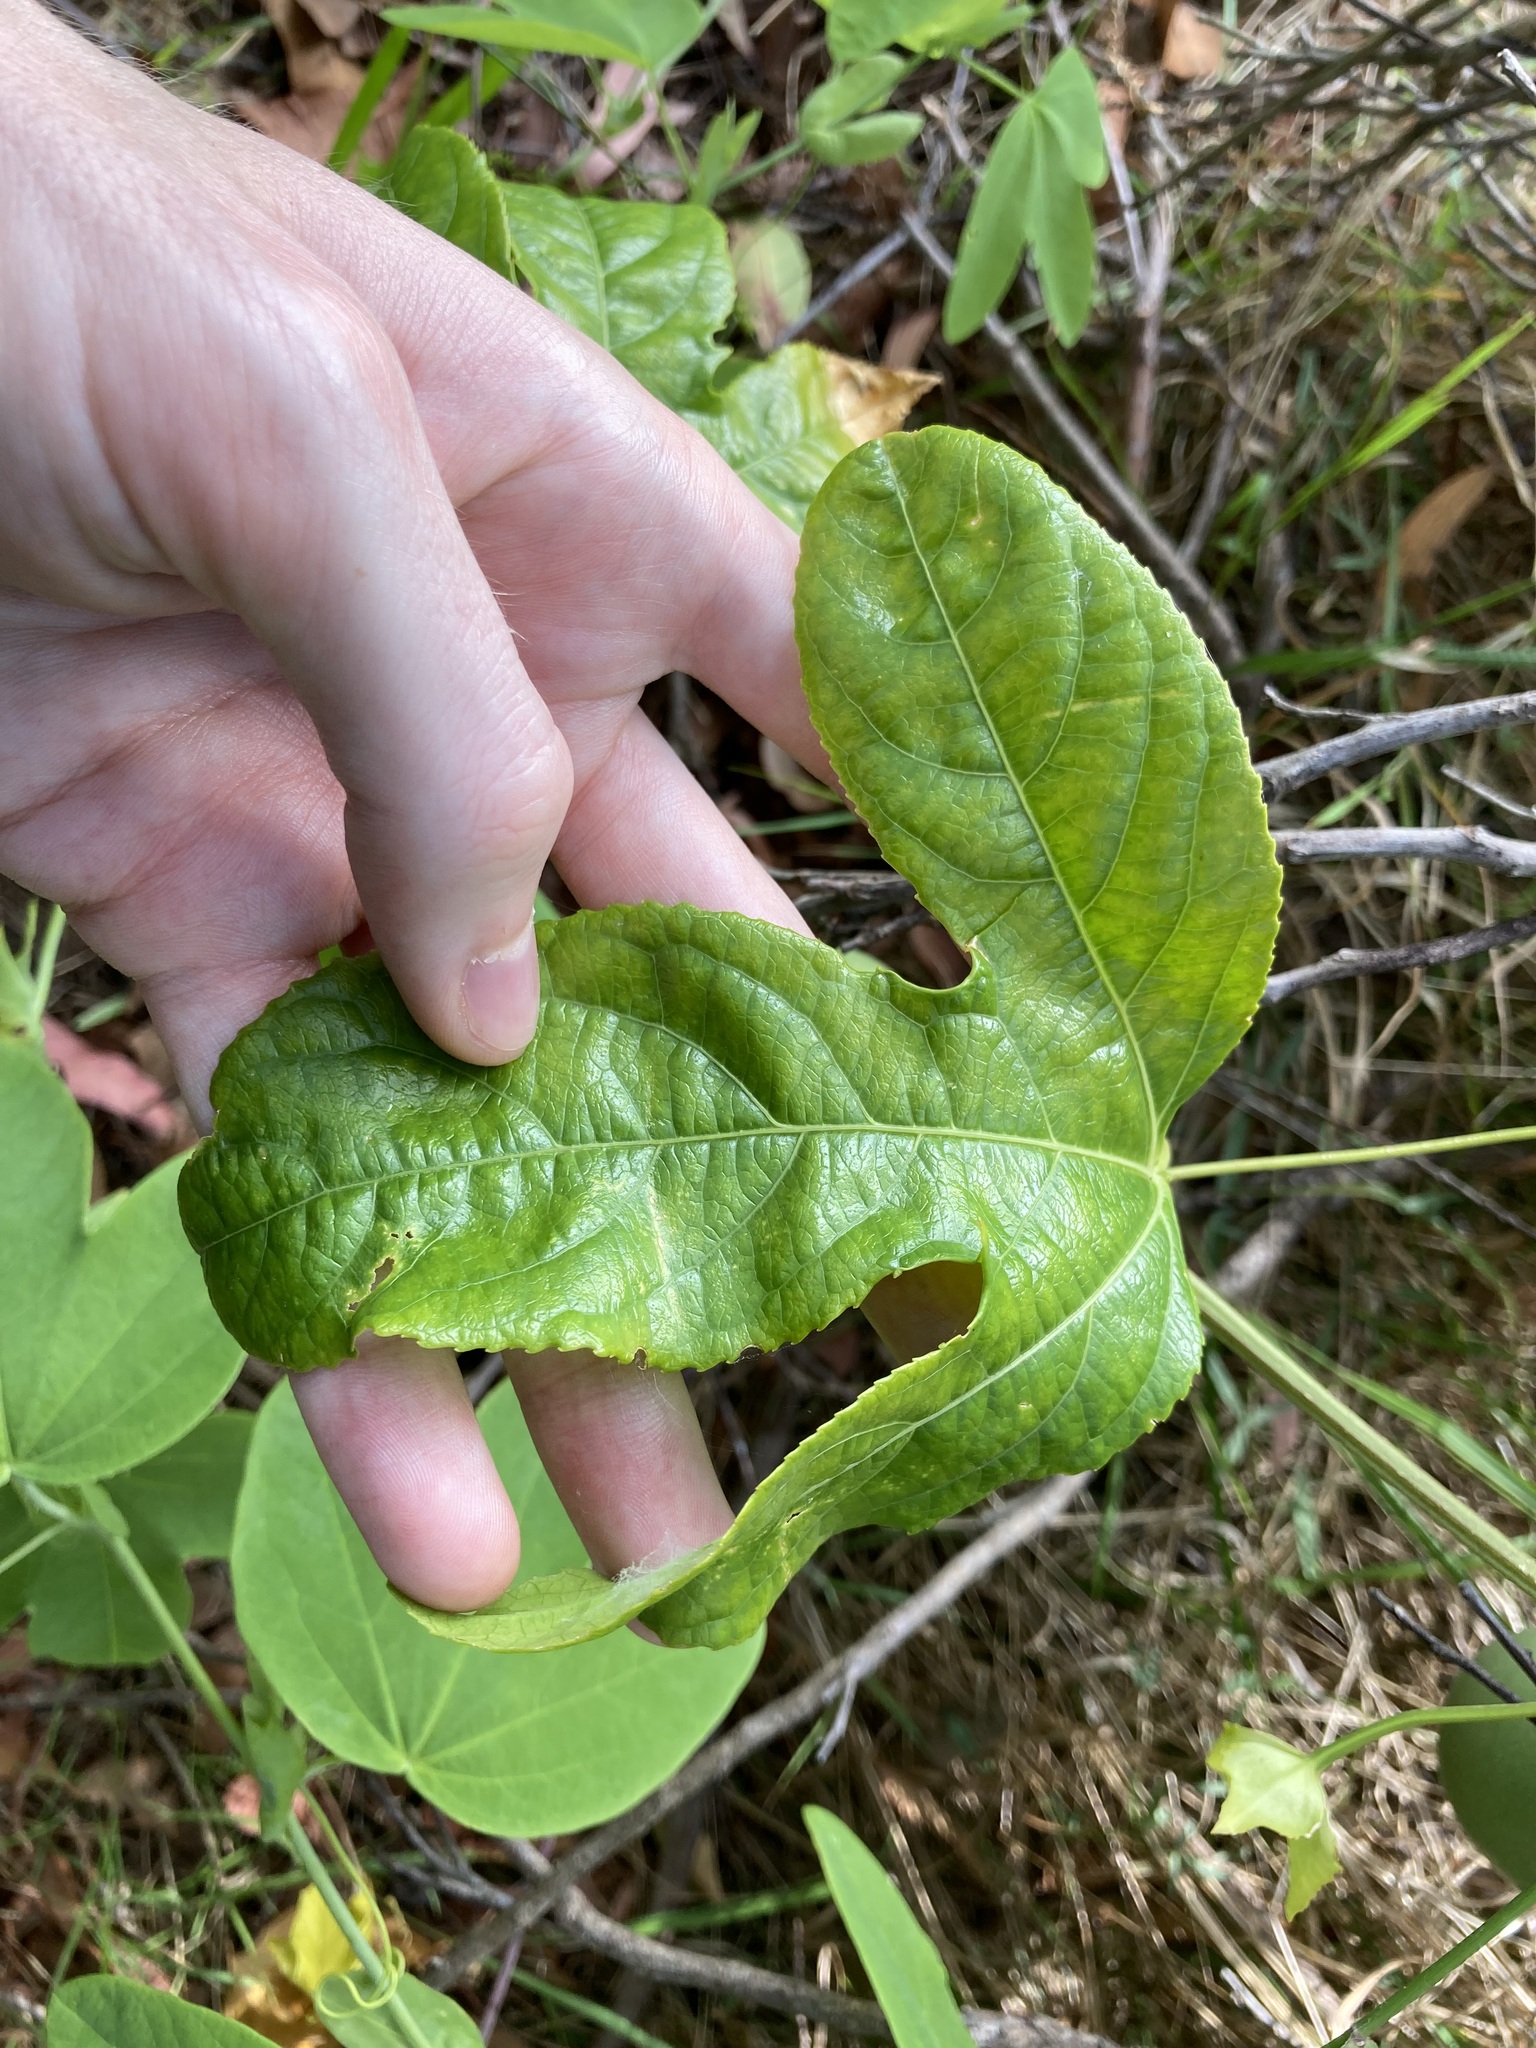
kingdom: Plantae
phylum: Tracheophyta
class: Magnoliopsida
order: Malpighiales
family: Passifloraceae
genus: Passiflora
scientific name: Passiflora edulis
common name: Purple granadilla
